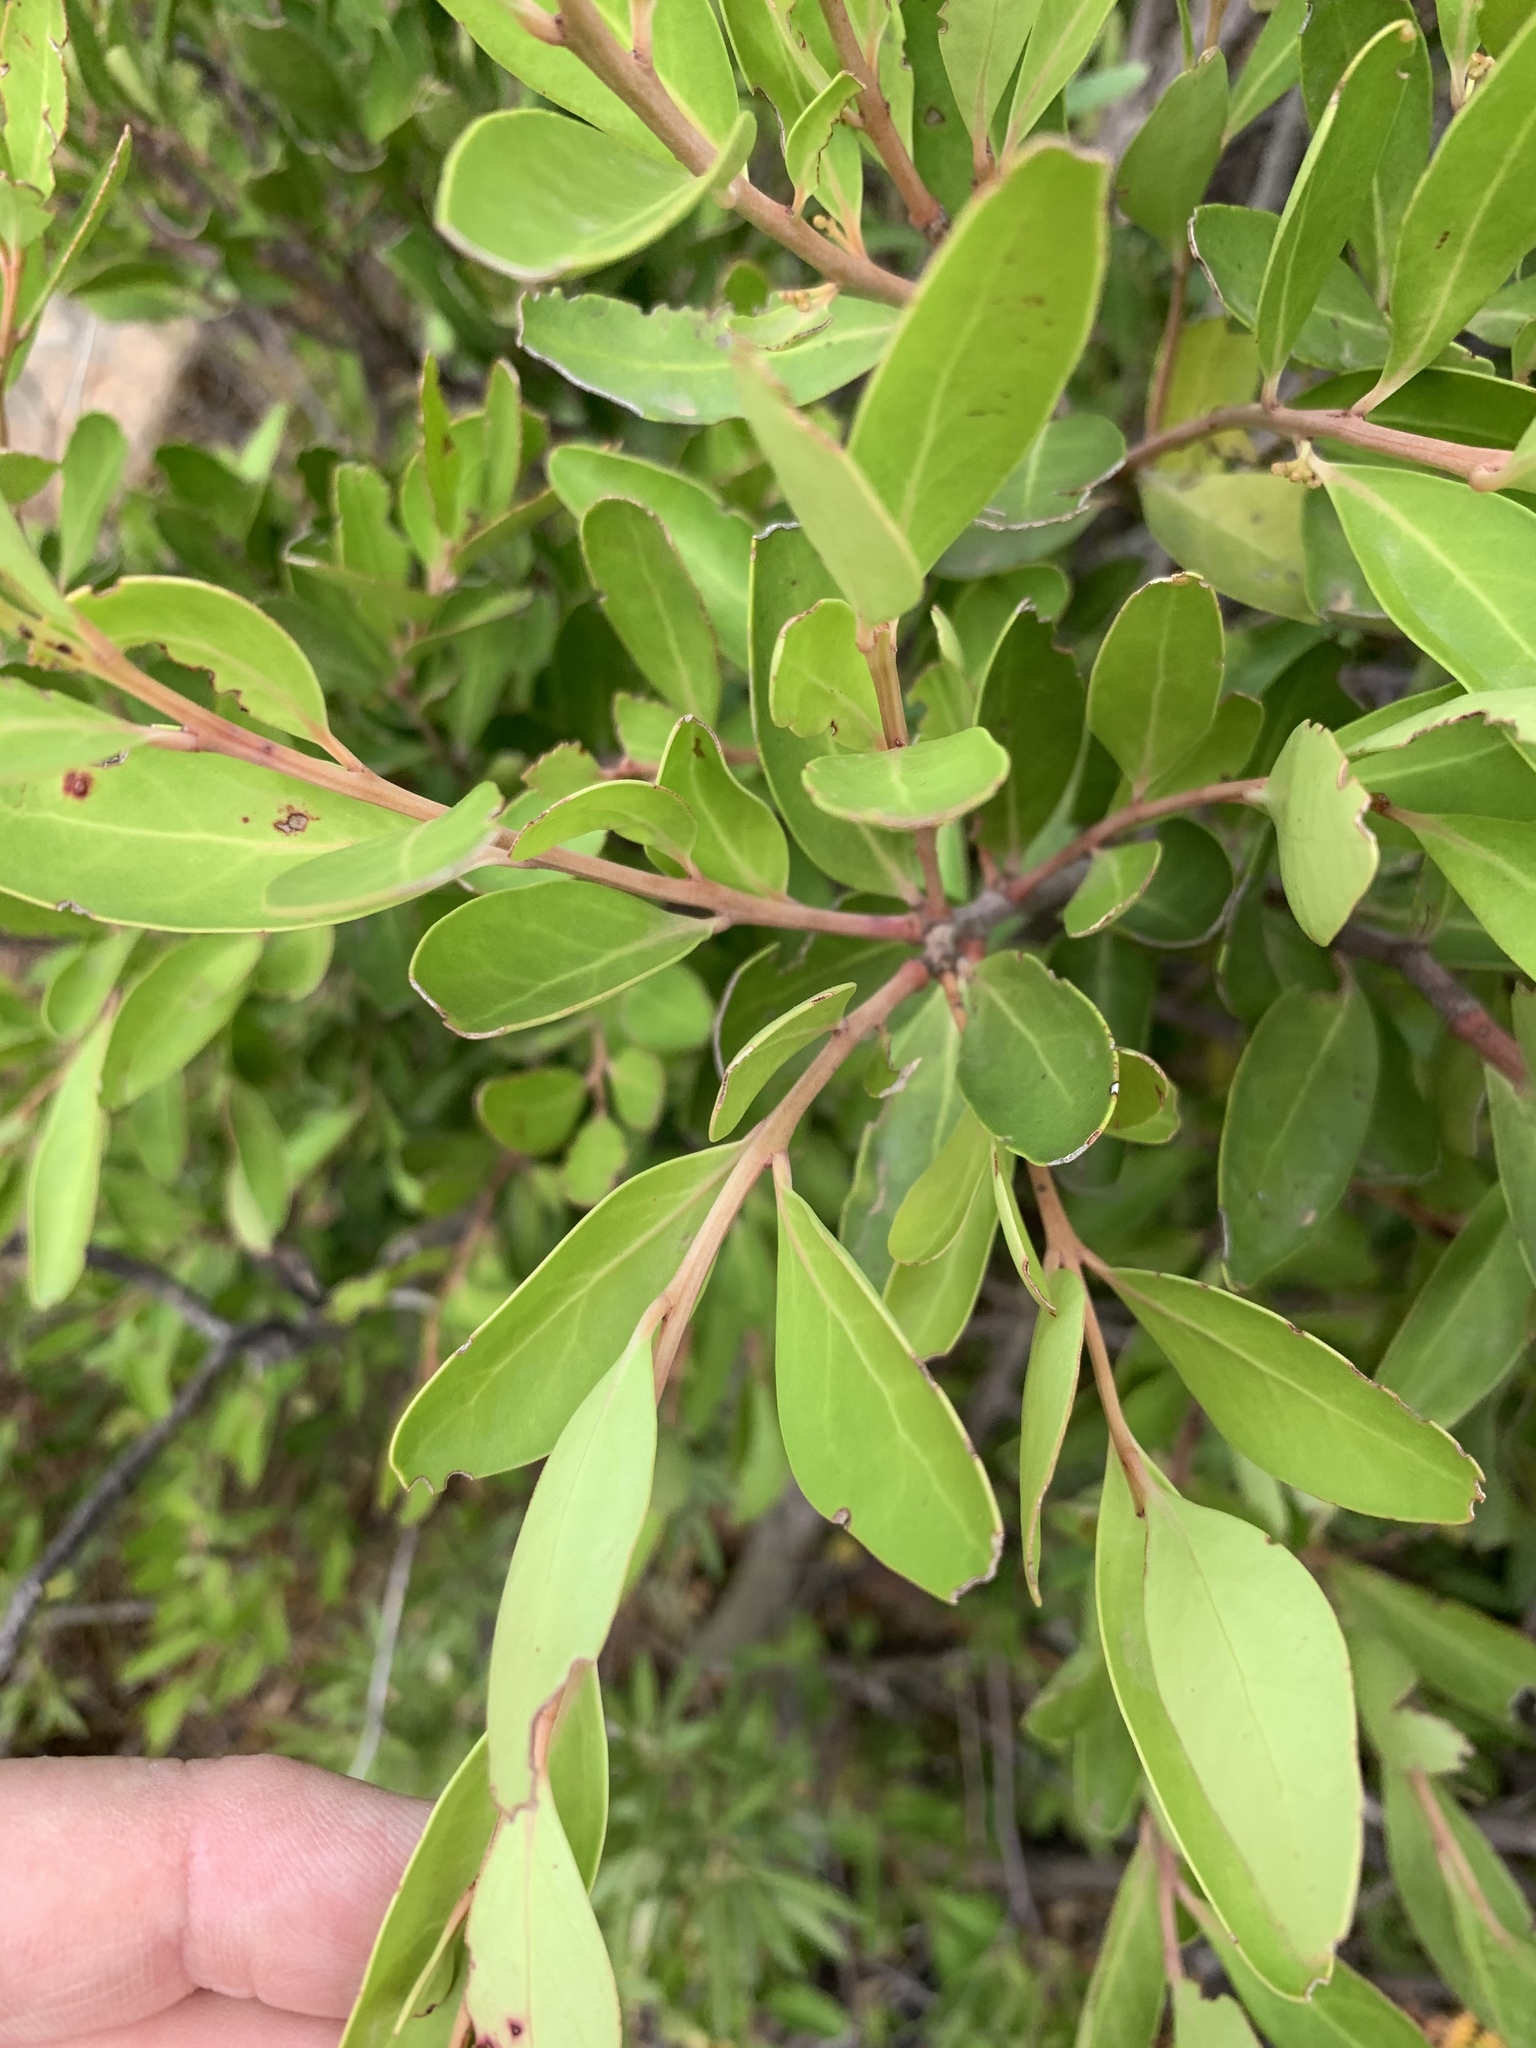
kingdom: Plantae
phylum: Tracheophyta
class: Magnoliopsida
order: Celastrales
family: Celastraceae
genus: Gymnosporia
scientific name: Gymnosporia laurina
